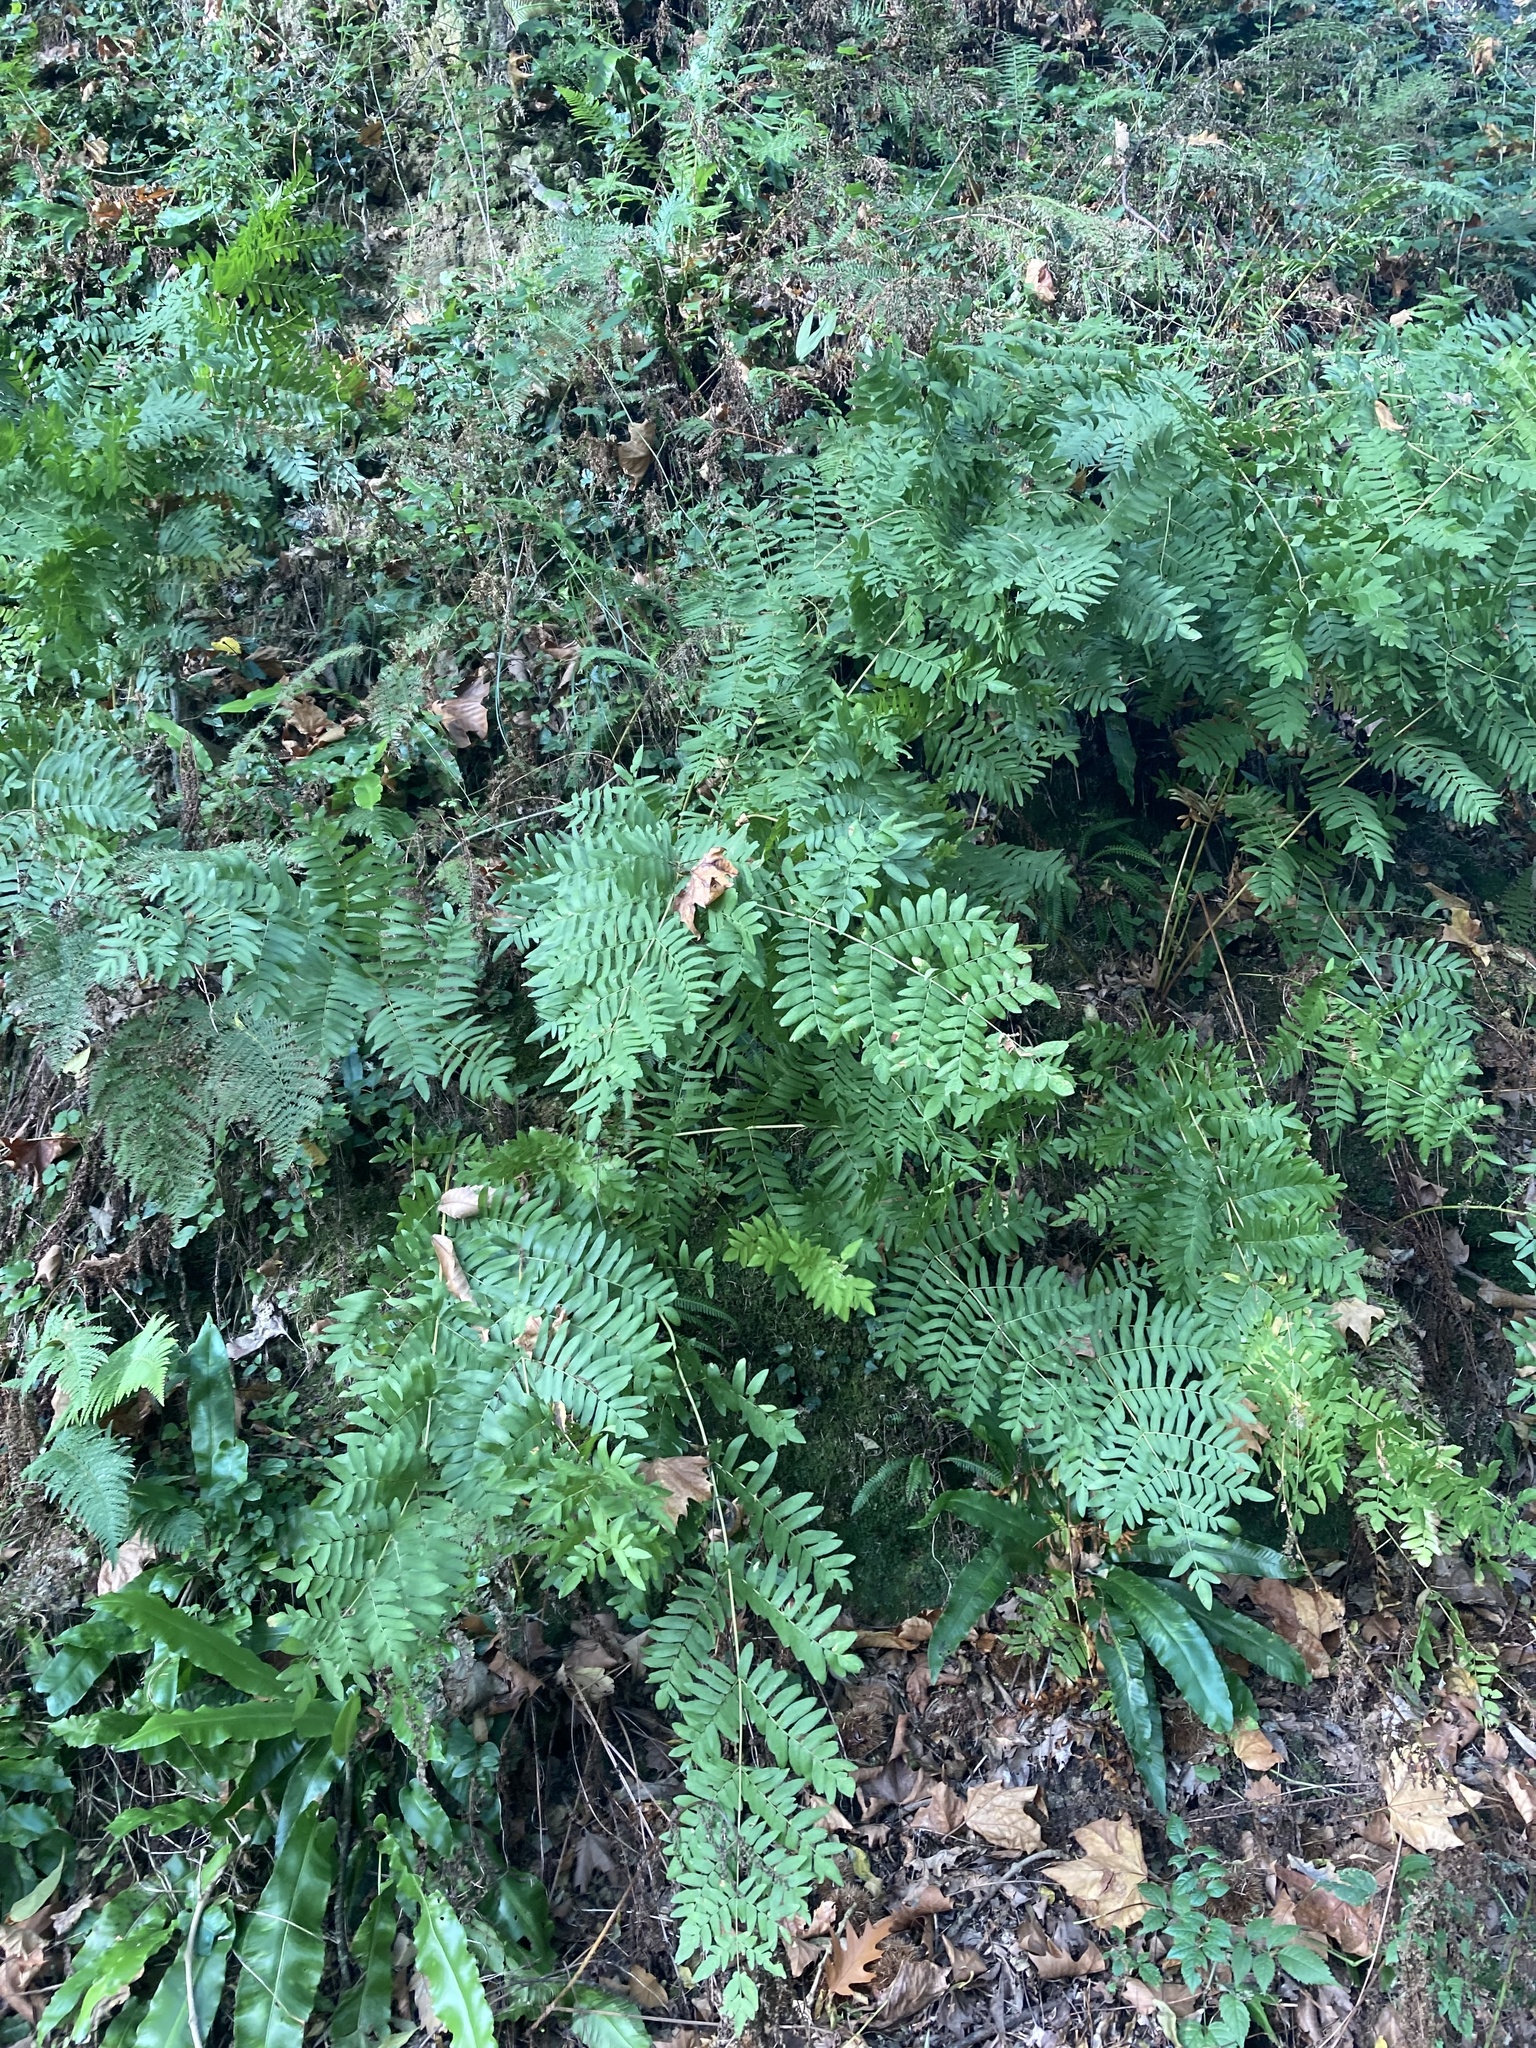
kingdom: Plantae
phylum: Tracheophyta
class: Polypodiopsida
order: Osmundales
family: Osmundaceae
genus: Osmunda
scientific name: Osmunda regalis
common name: Royal fern
